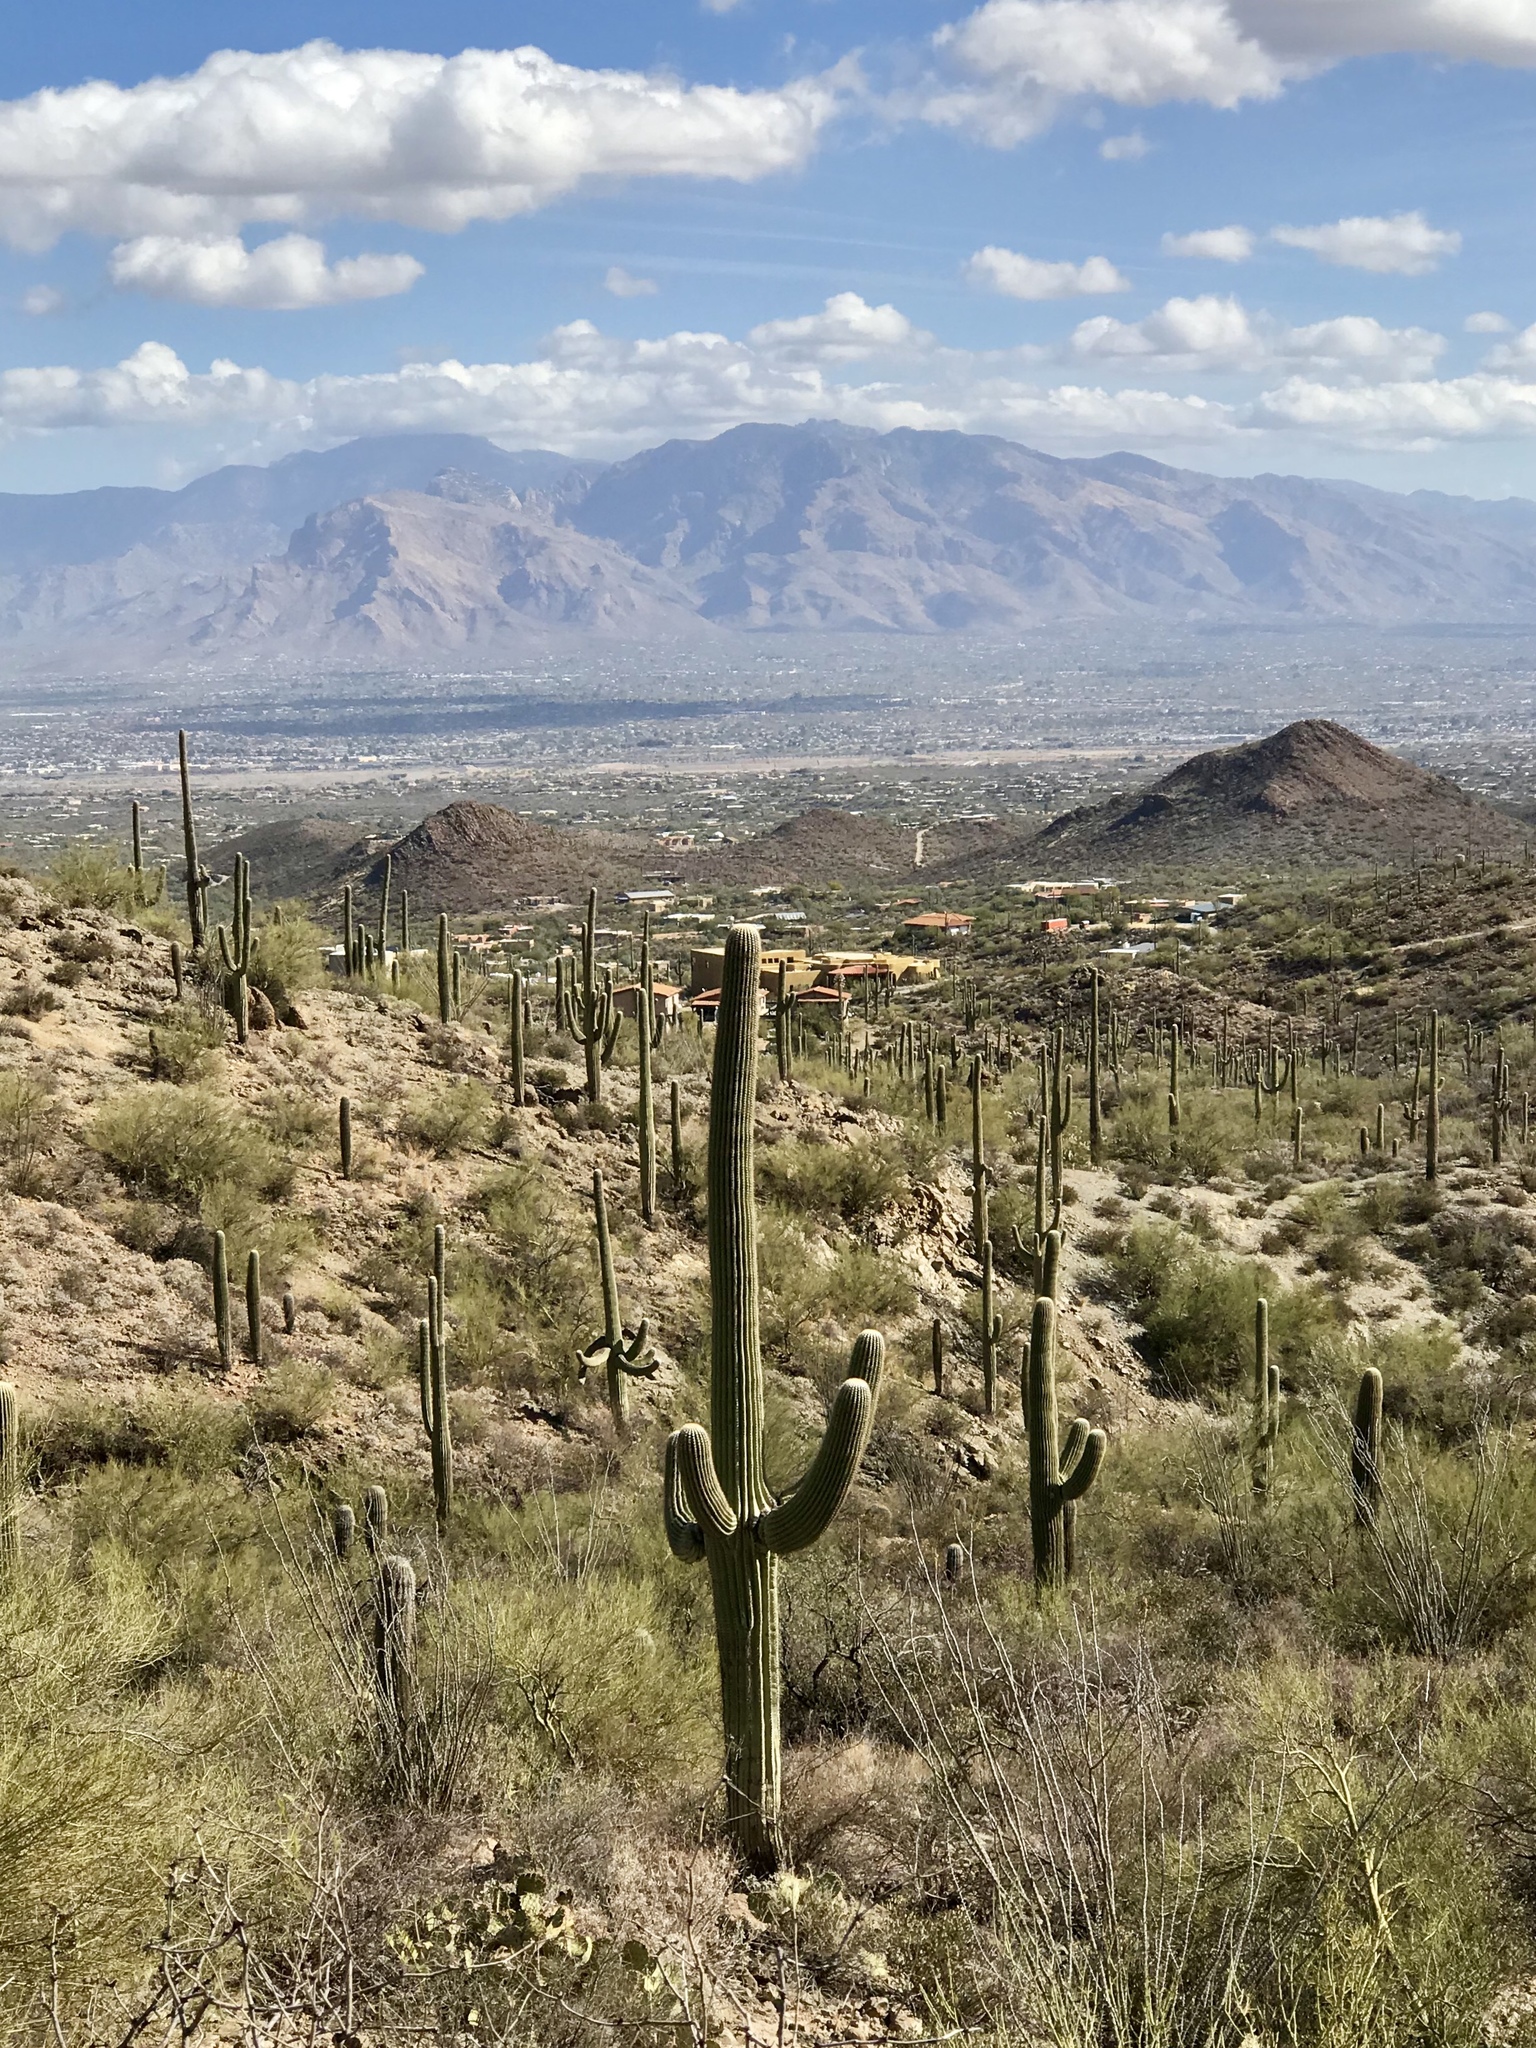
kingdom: Plantae
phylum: Tracheophyta
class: Magnoliopsida
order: Caryophyllales
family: Cactaceae
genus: Carnegiea
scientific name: Carnegiea gigantea
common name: Saguaro
